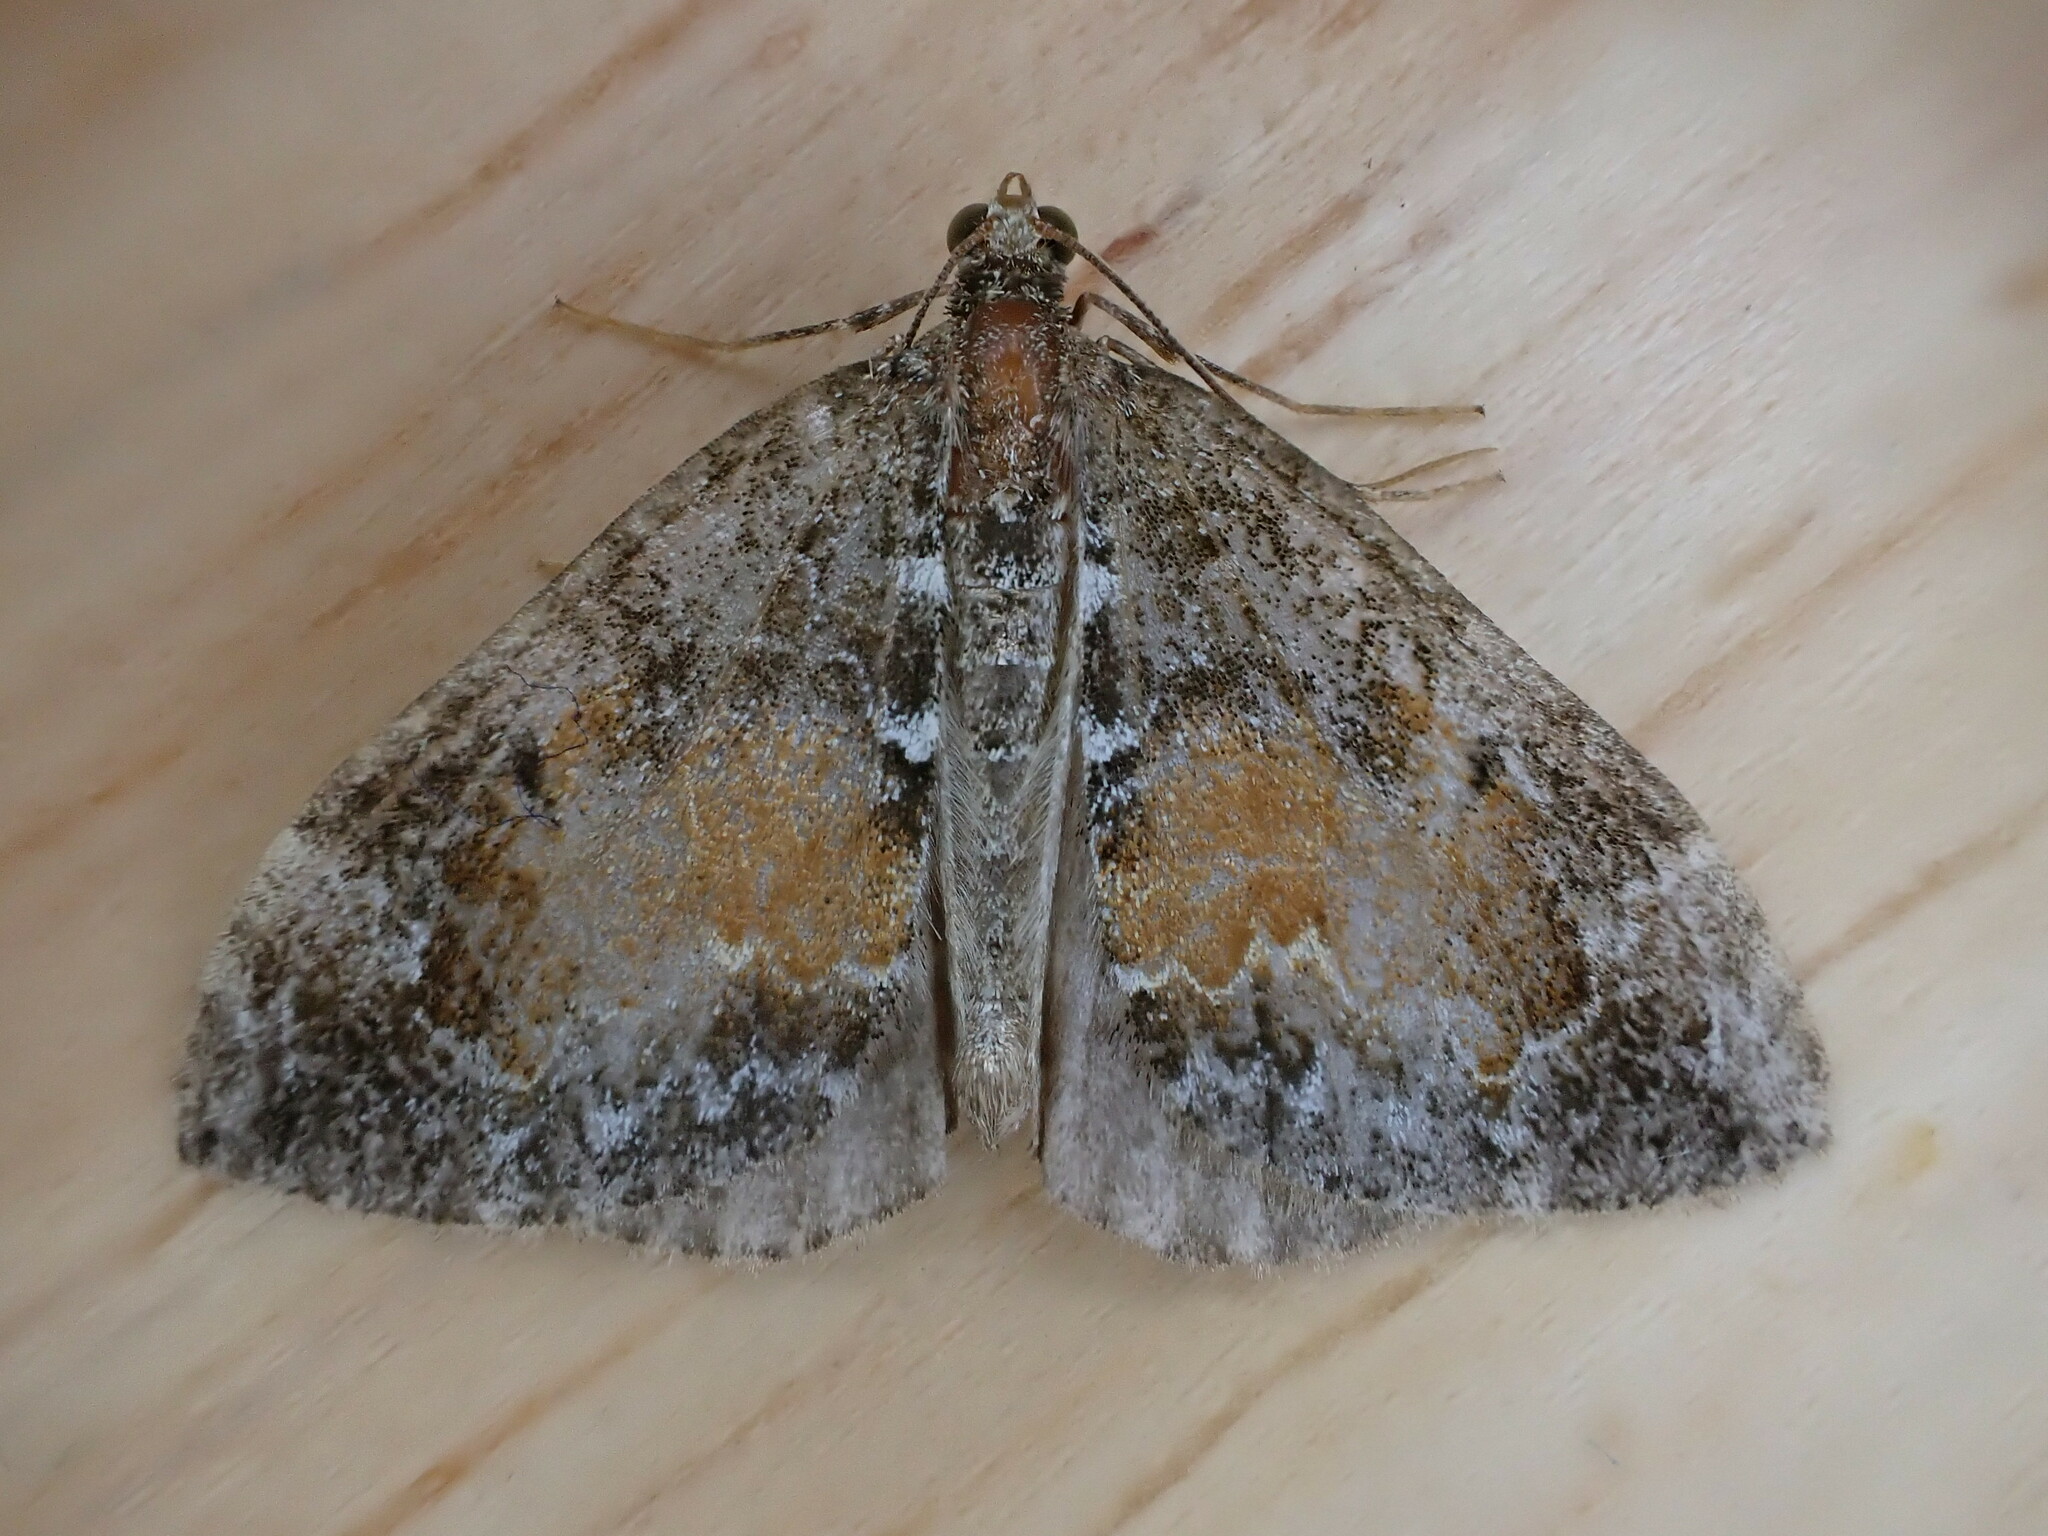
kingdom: Animalia
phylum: Arthropoda
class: Insecta
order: Lepidoptera
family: Geometridae
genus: Dysstroma
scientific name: Dysstroma truncata
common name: Common marbled carpet
